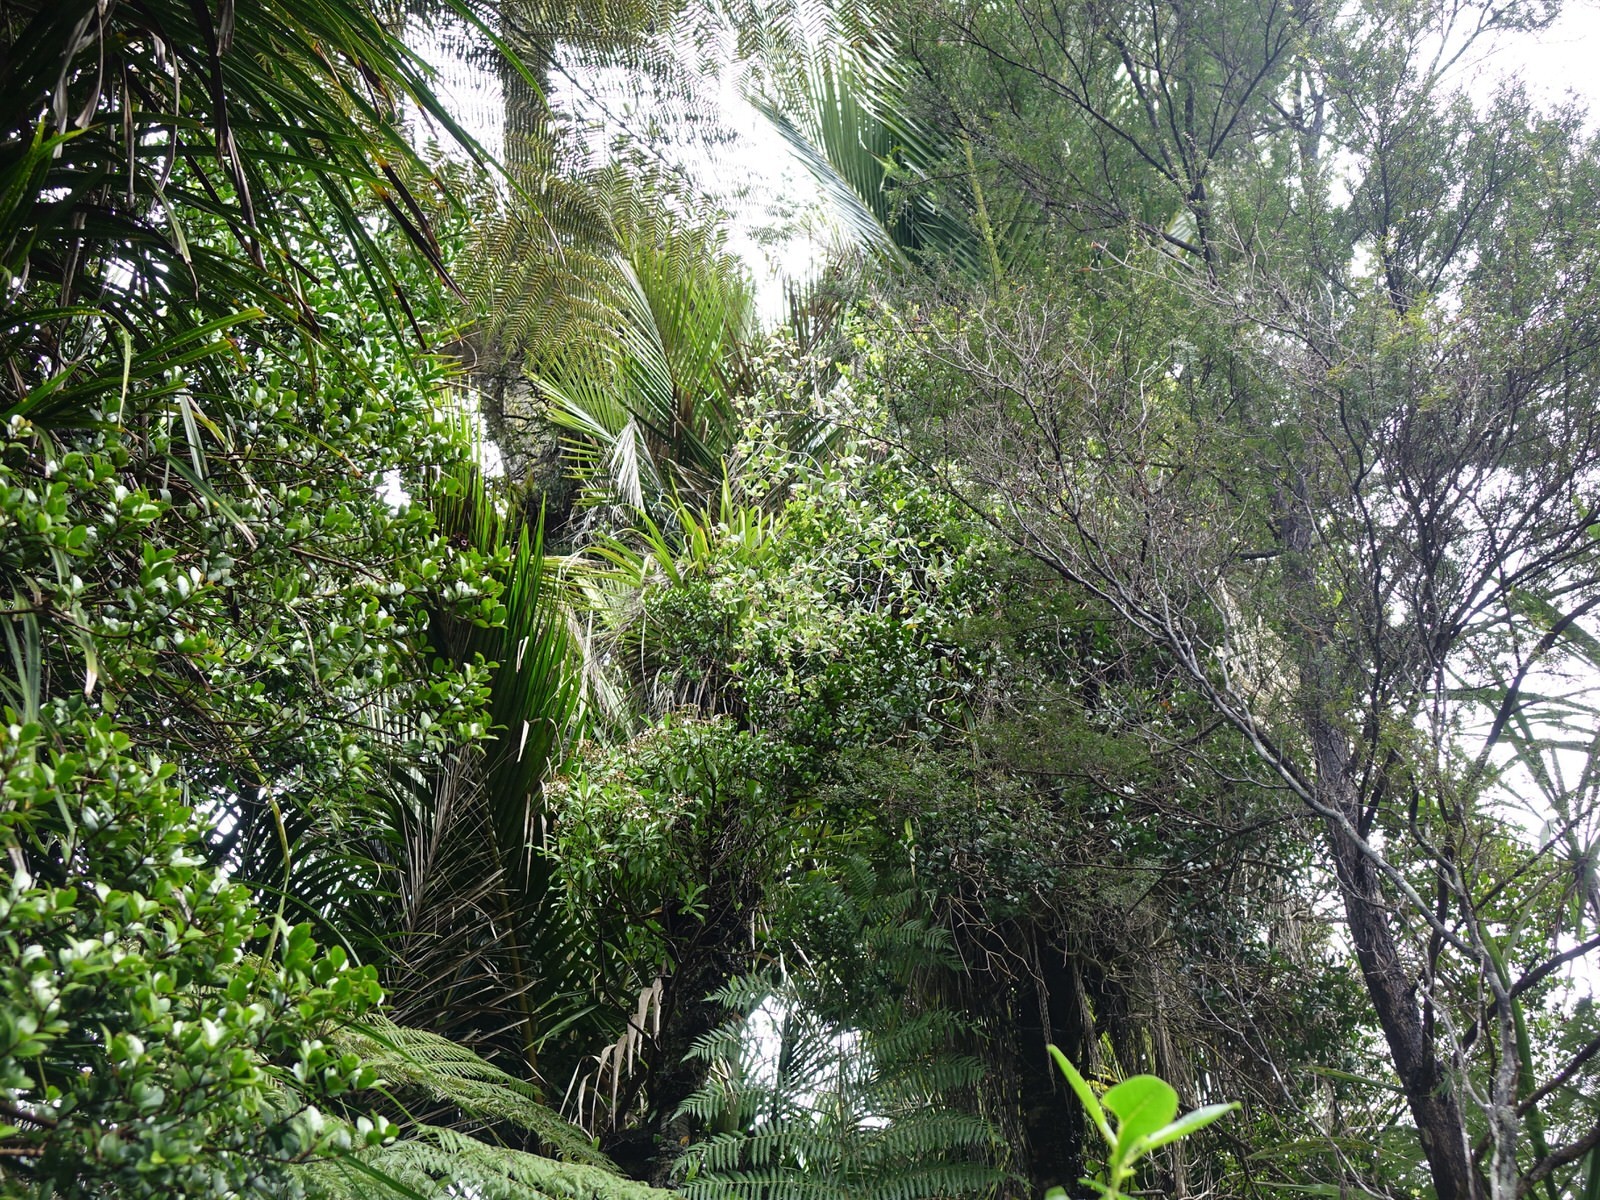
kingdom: Plantae
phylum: Tracheophyta
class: Magnoliopsida
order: Apiales
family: Pittosporaceae
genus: Pittosporum
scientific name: Pittosporum cornifolium
